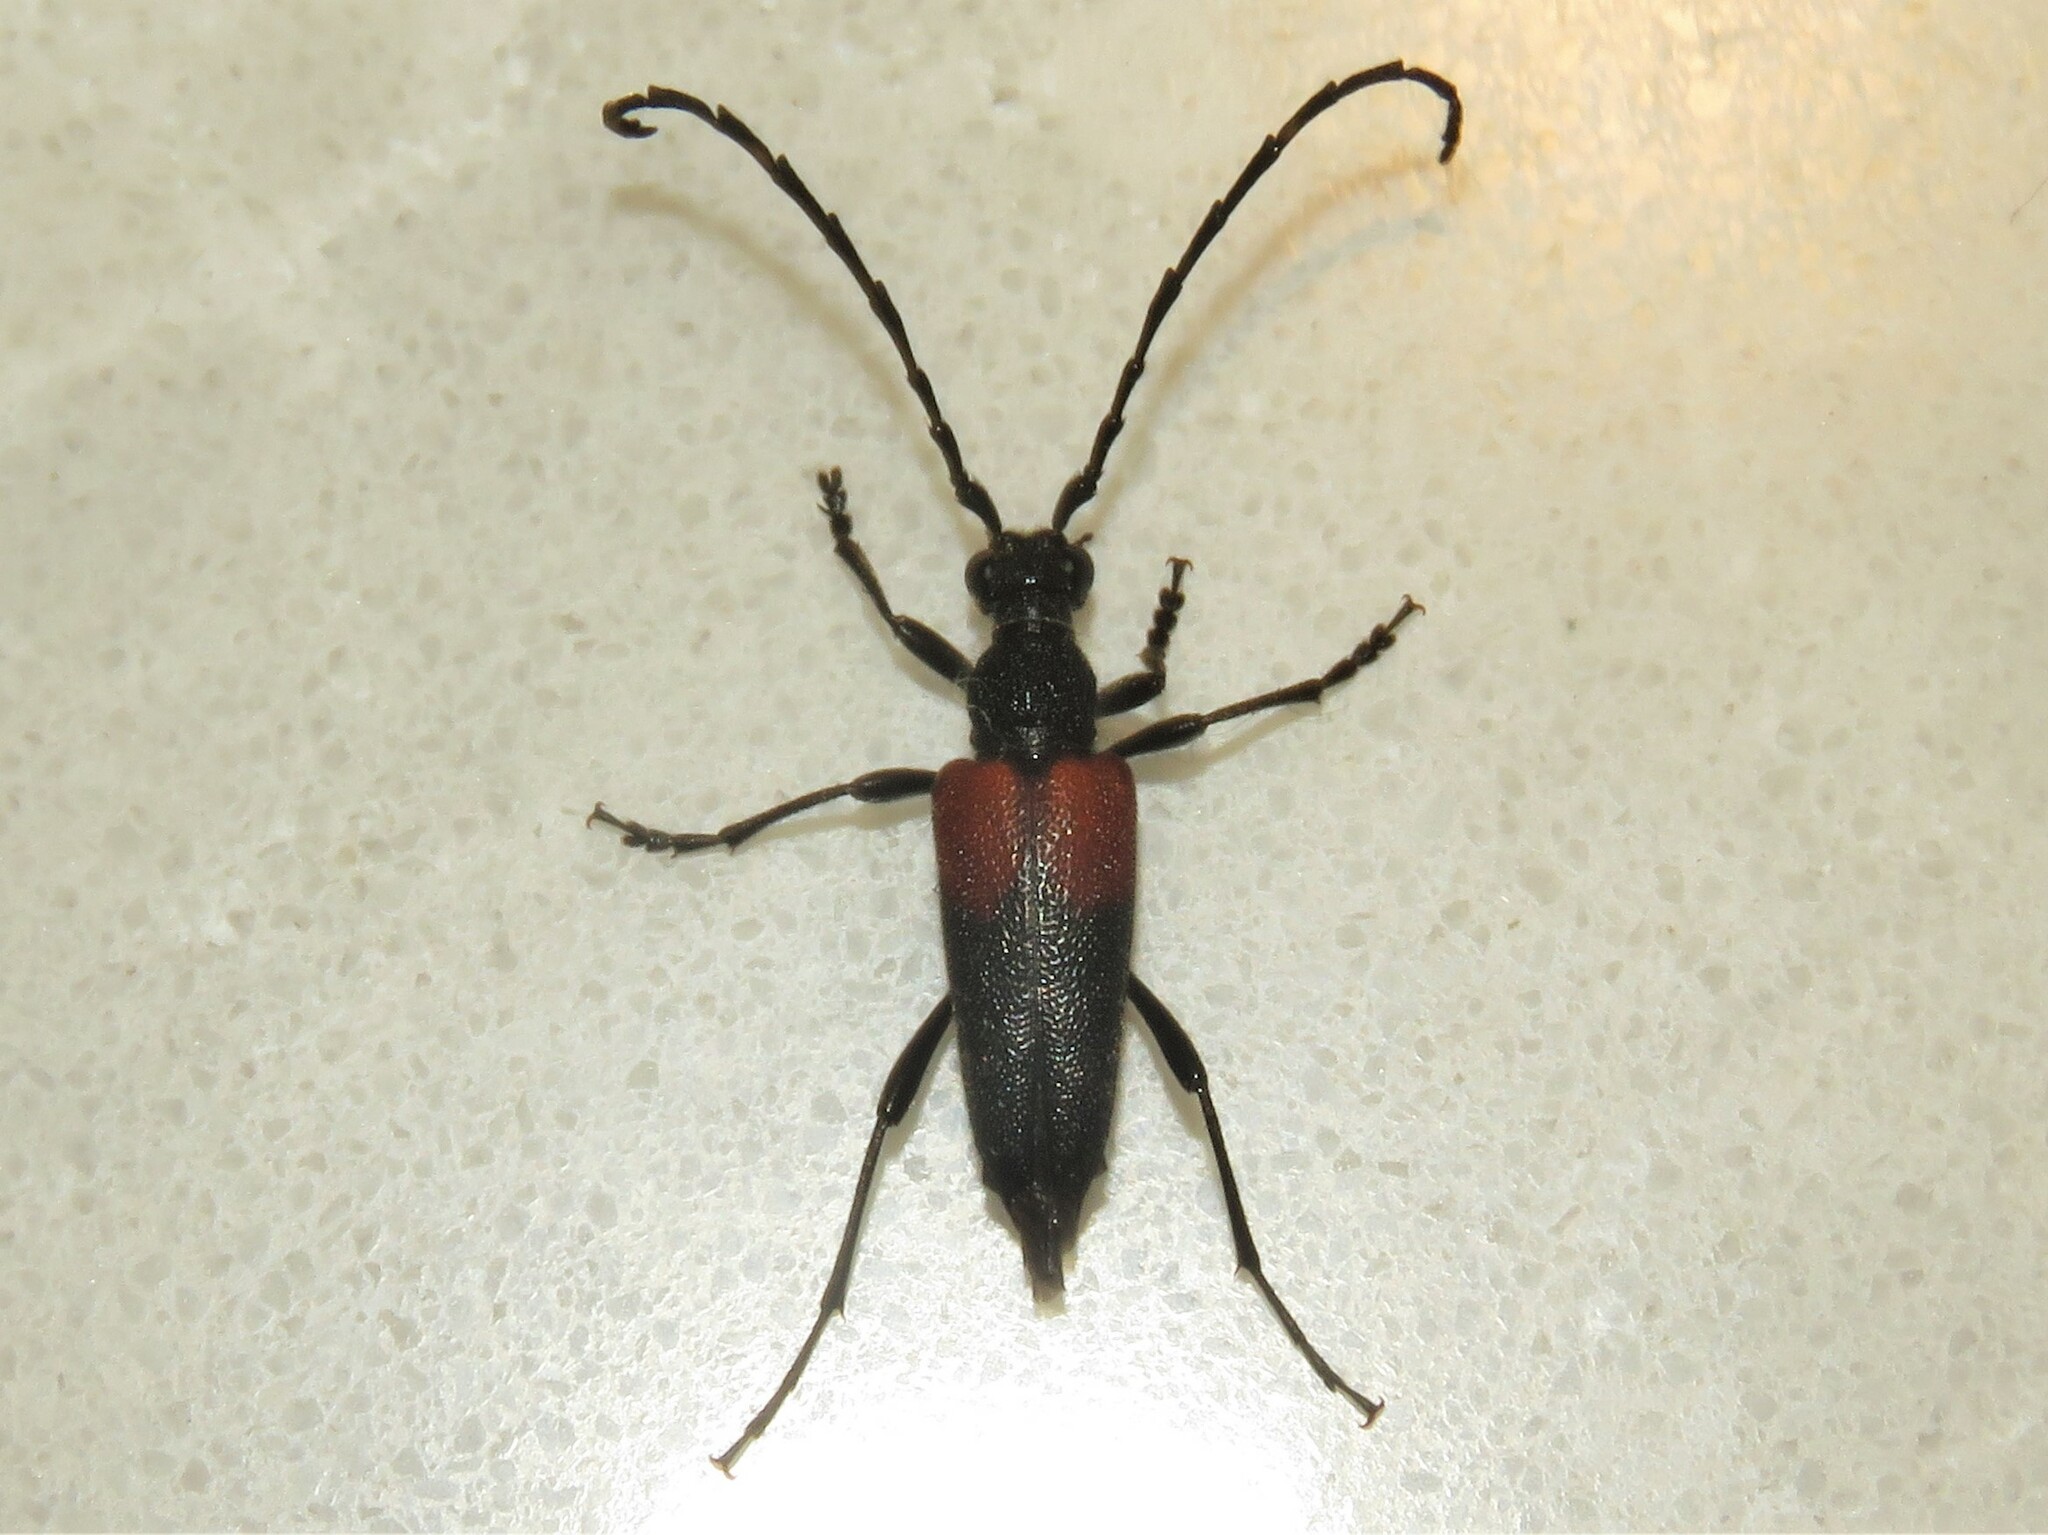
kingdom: Animalia
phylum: Arthropoda
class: Insecta
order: Coleoptera
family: Cerambycidae
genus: Stictoleptura
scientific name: Stictoleptura canadensis
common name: Red-shouldered pine borer
